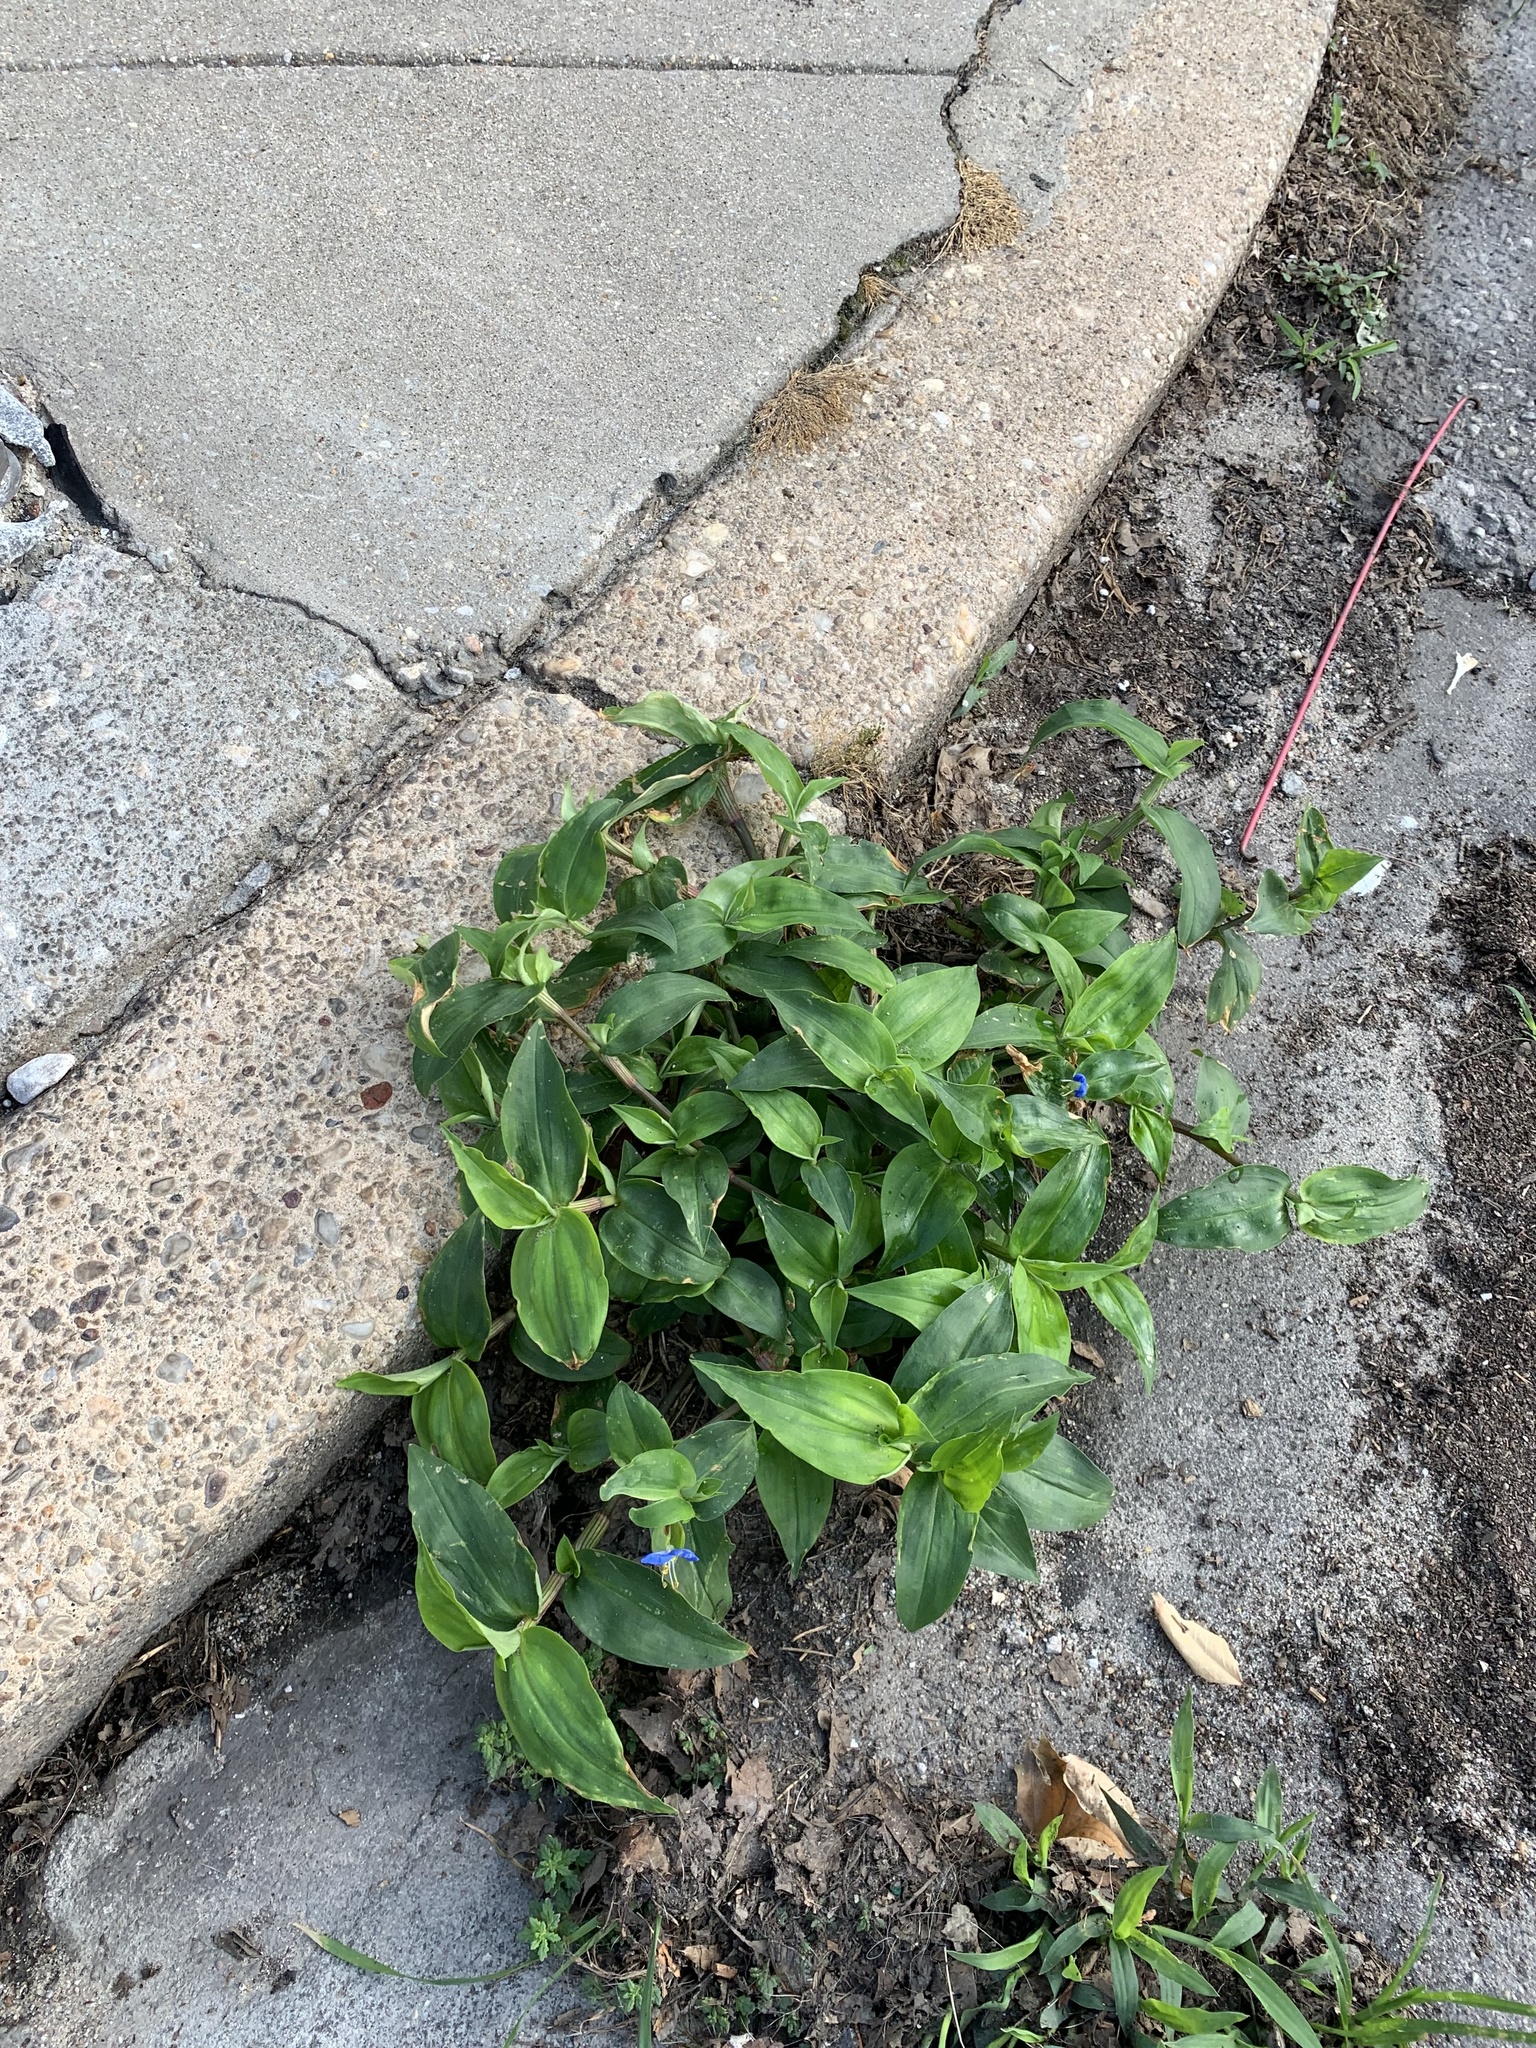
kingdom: Plantae
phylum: Tracheophyta
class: Liliopsida
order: Commelinales
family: Commelinaceae
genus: Commelina
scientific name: Commelina communis
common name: Asiatic dayflower
